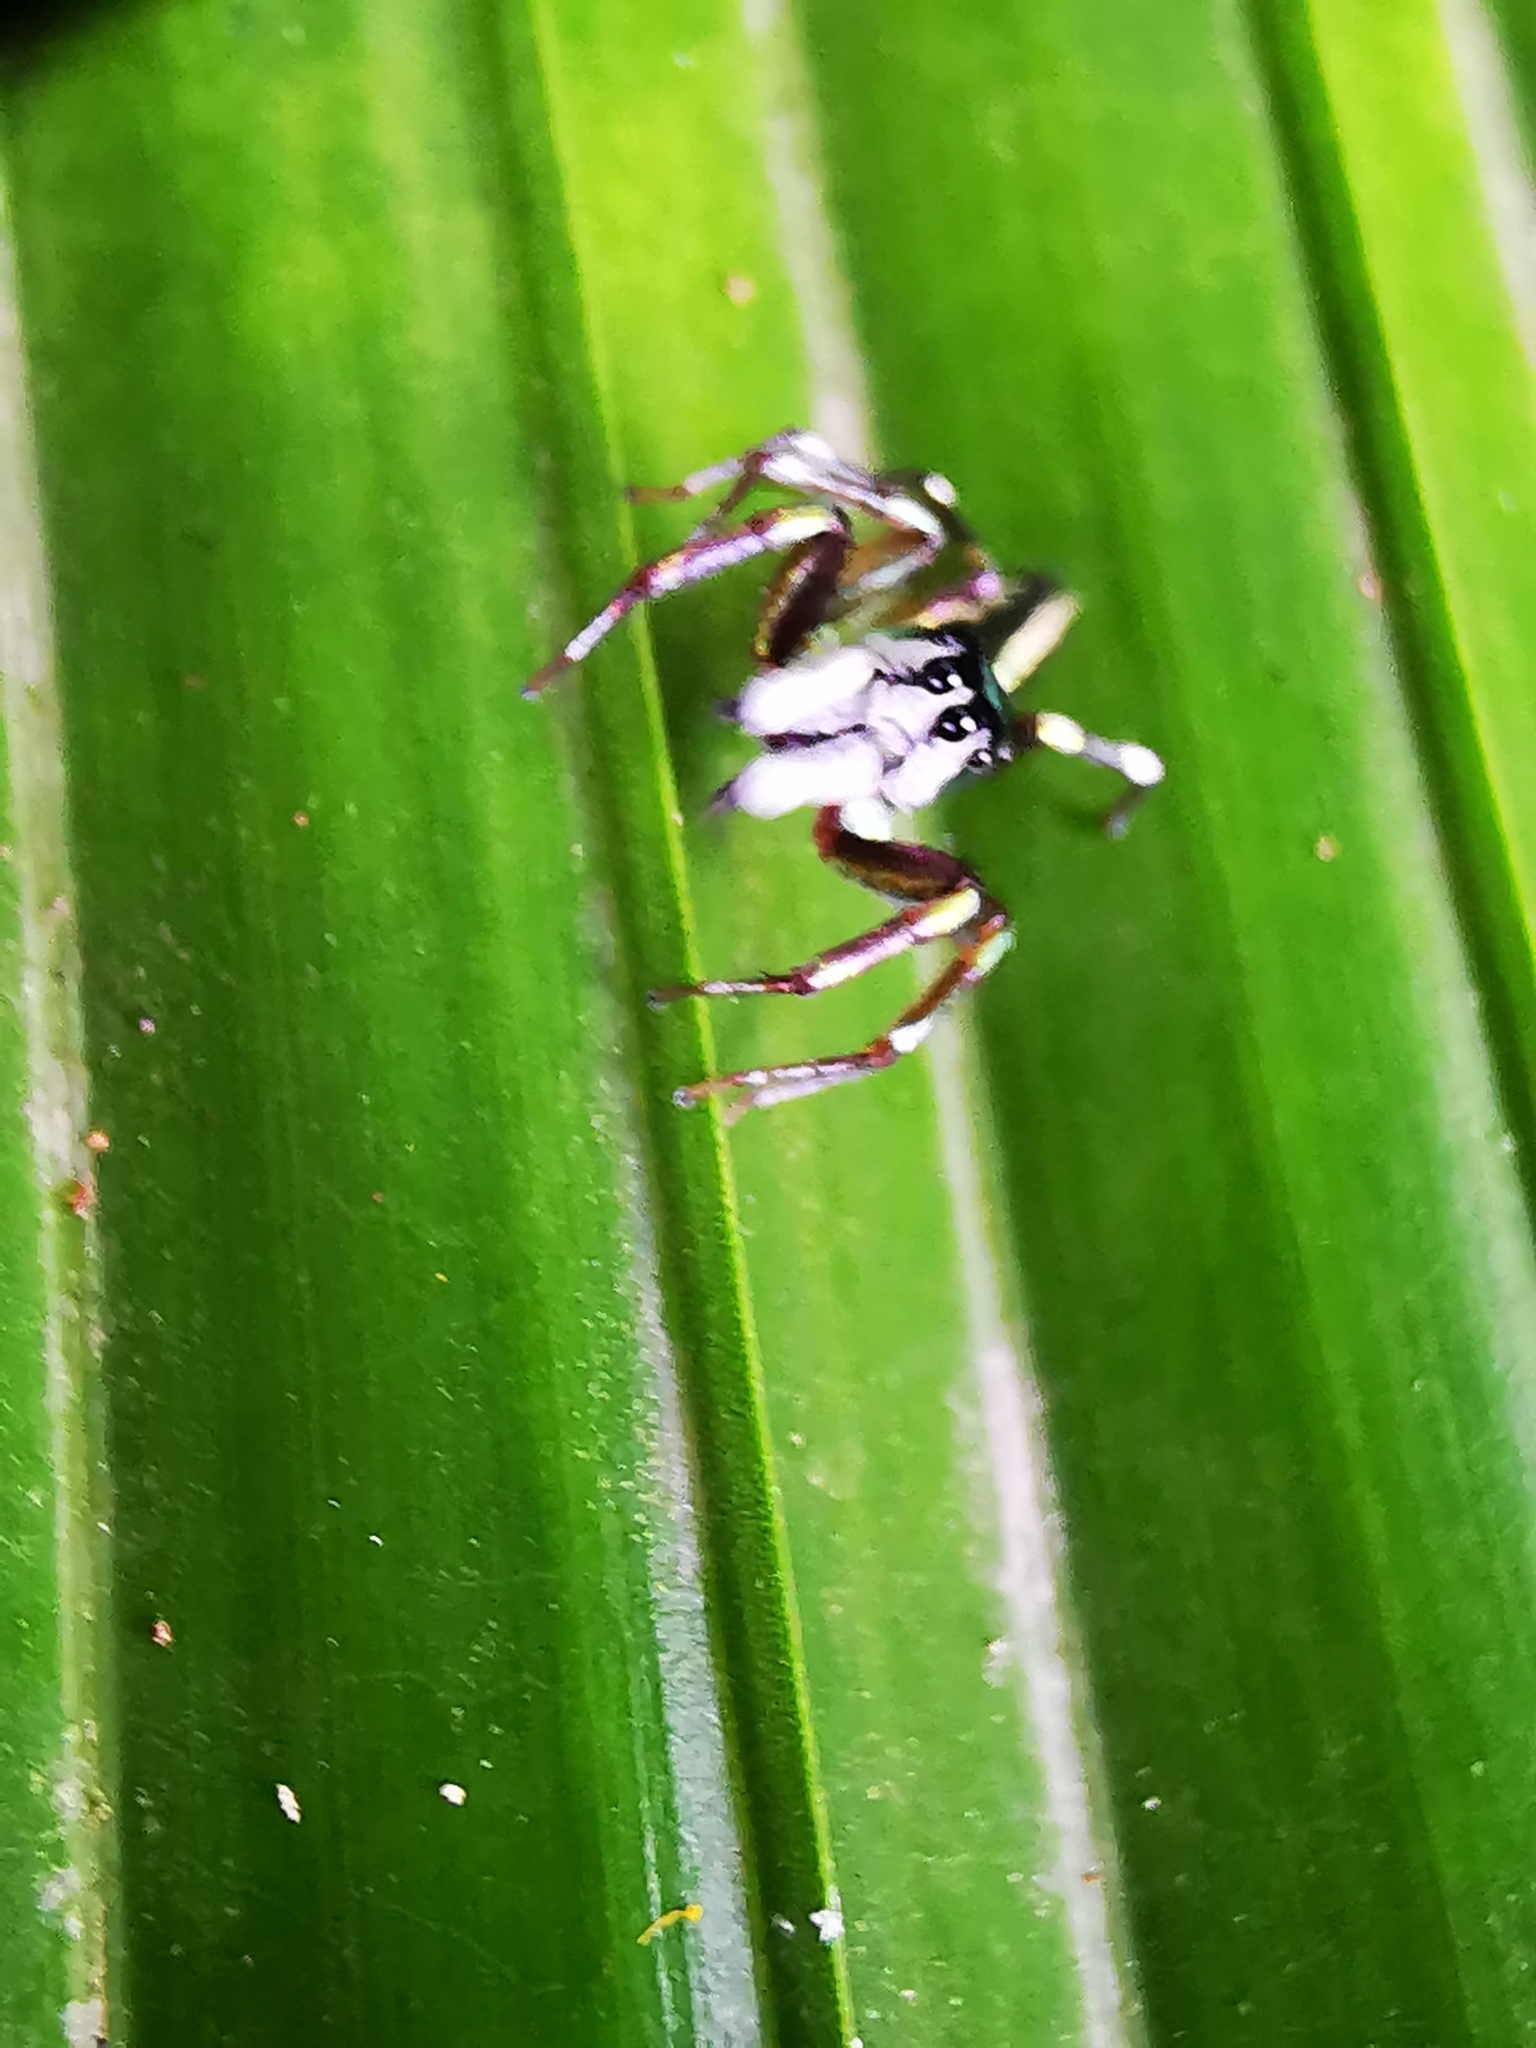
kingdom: Animalia
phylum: Arthropoda
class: Arachnida
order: Araneae
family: Salticidae
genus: Cosmophasis
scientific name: Cosmophasis thalassina
